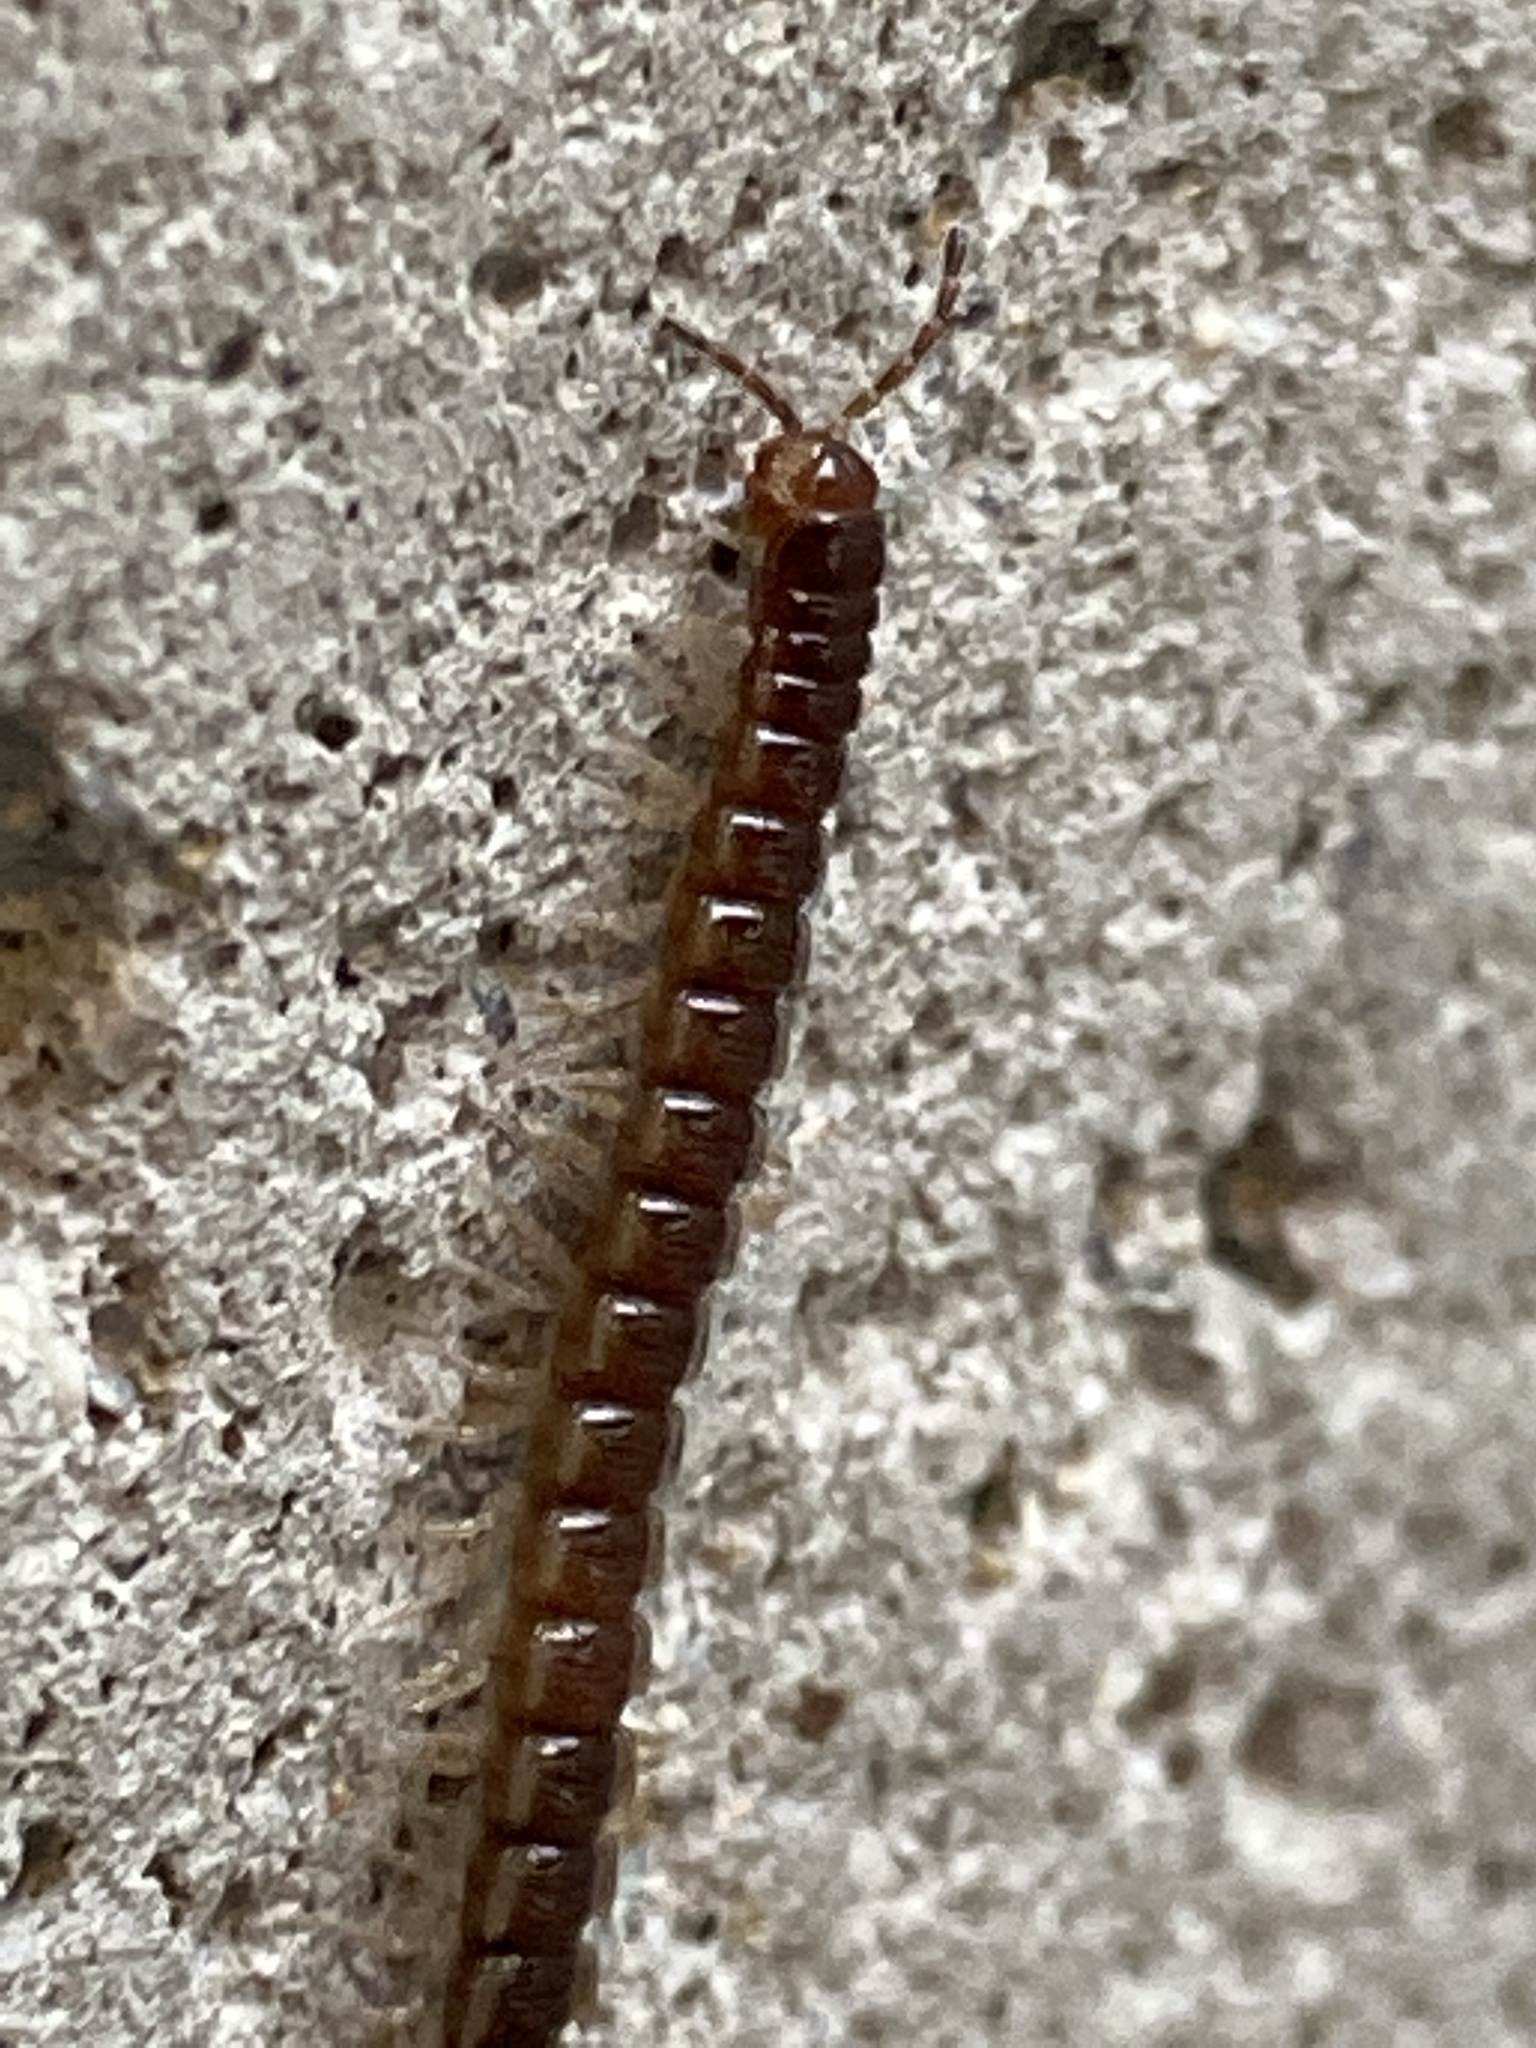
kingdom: Animalia
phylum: Arthropoda
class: Diplopoda
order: Polydesmida
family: Paradoxosomatidae
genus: Oxidus
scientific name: Oxidus gracilis
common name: Greenhouse millipede
